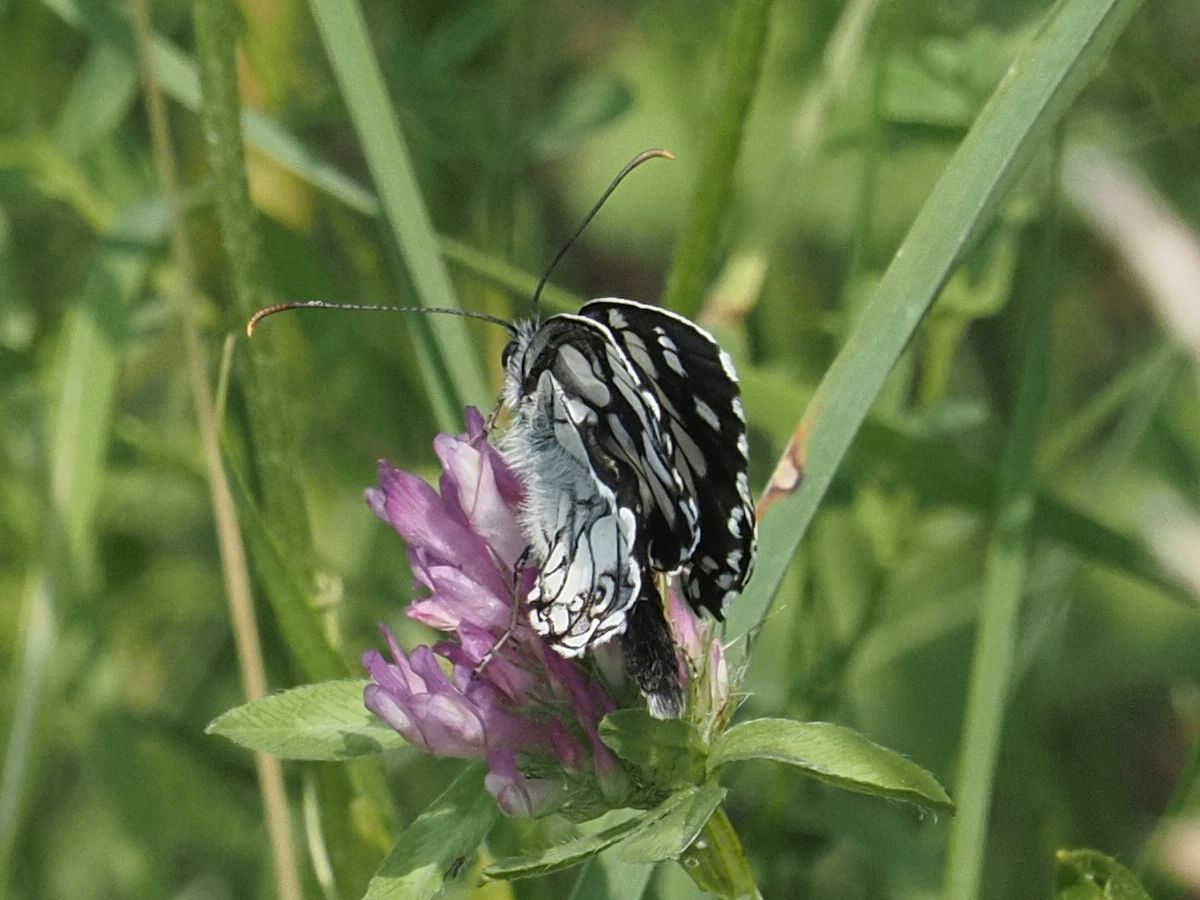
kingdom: Animalia
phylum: Arthropoda
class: Insecta
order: Lepidoptera
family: Nymphalidae
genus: Melanargia
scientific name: Melanargia galathea
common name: Marbled white
